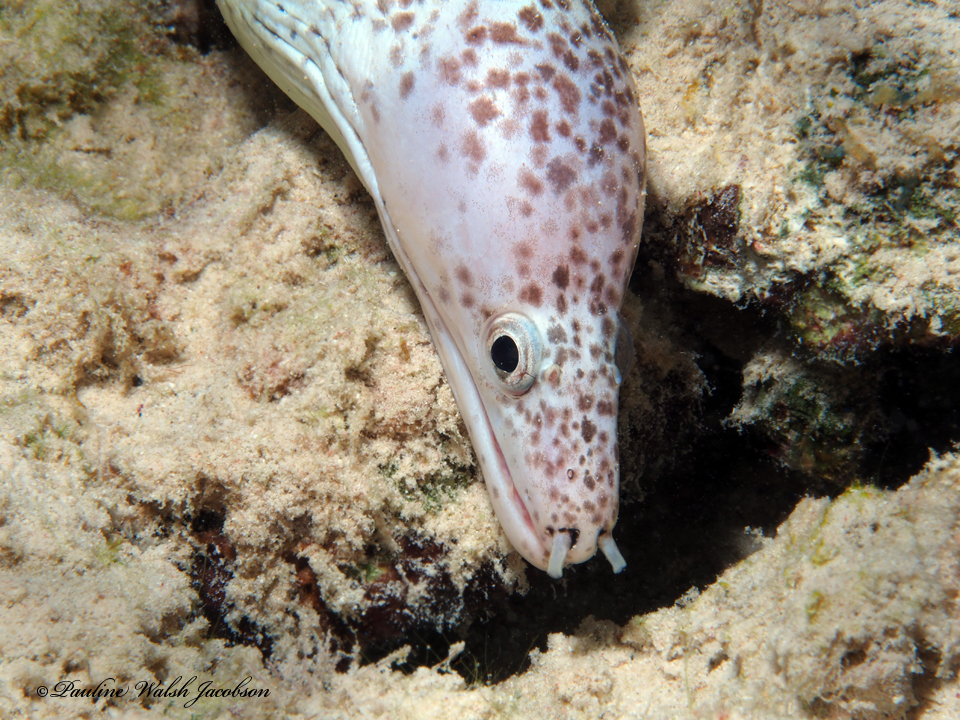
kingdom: Animalia
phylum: Chordata
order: Anguilliformes
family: Muraenidae
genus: Gymnothorax
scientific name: Gymnothorax moringa
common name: Spotted moray
